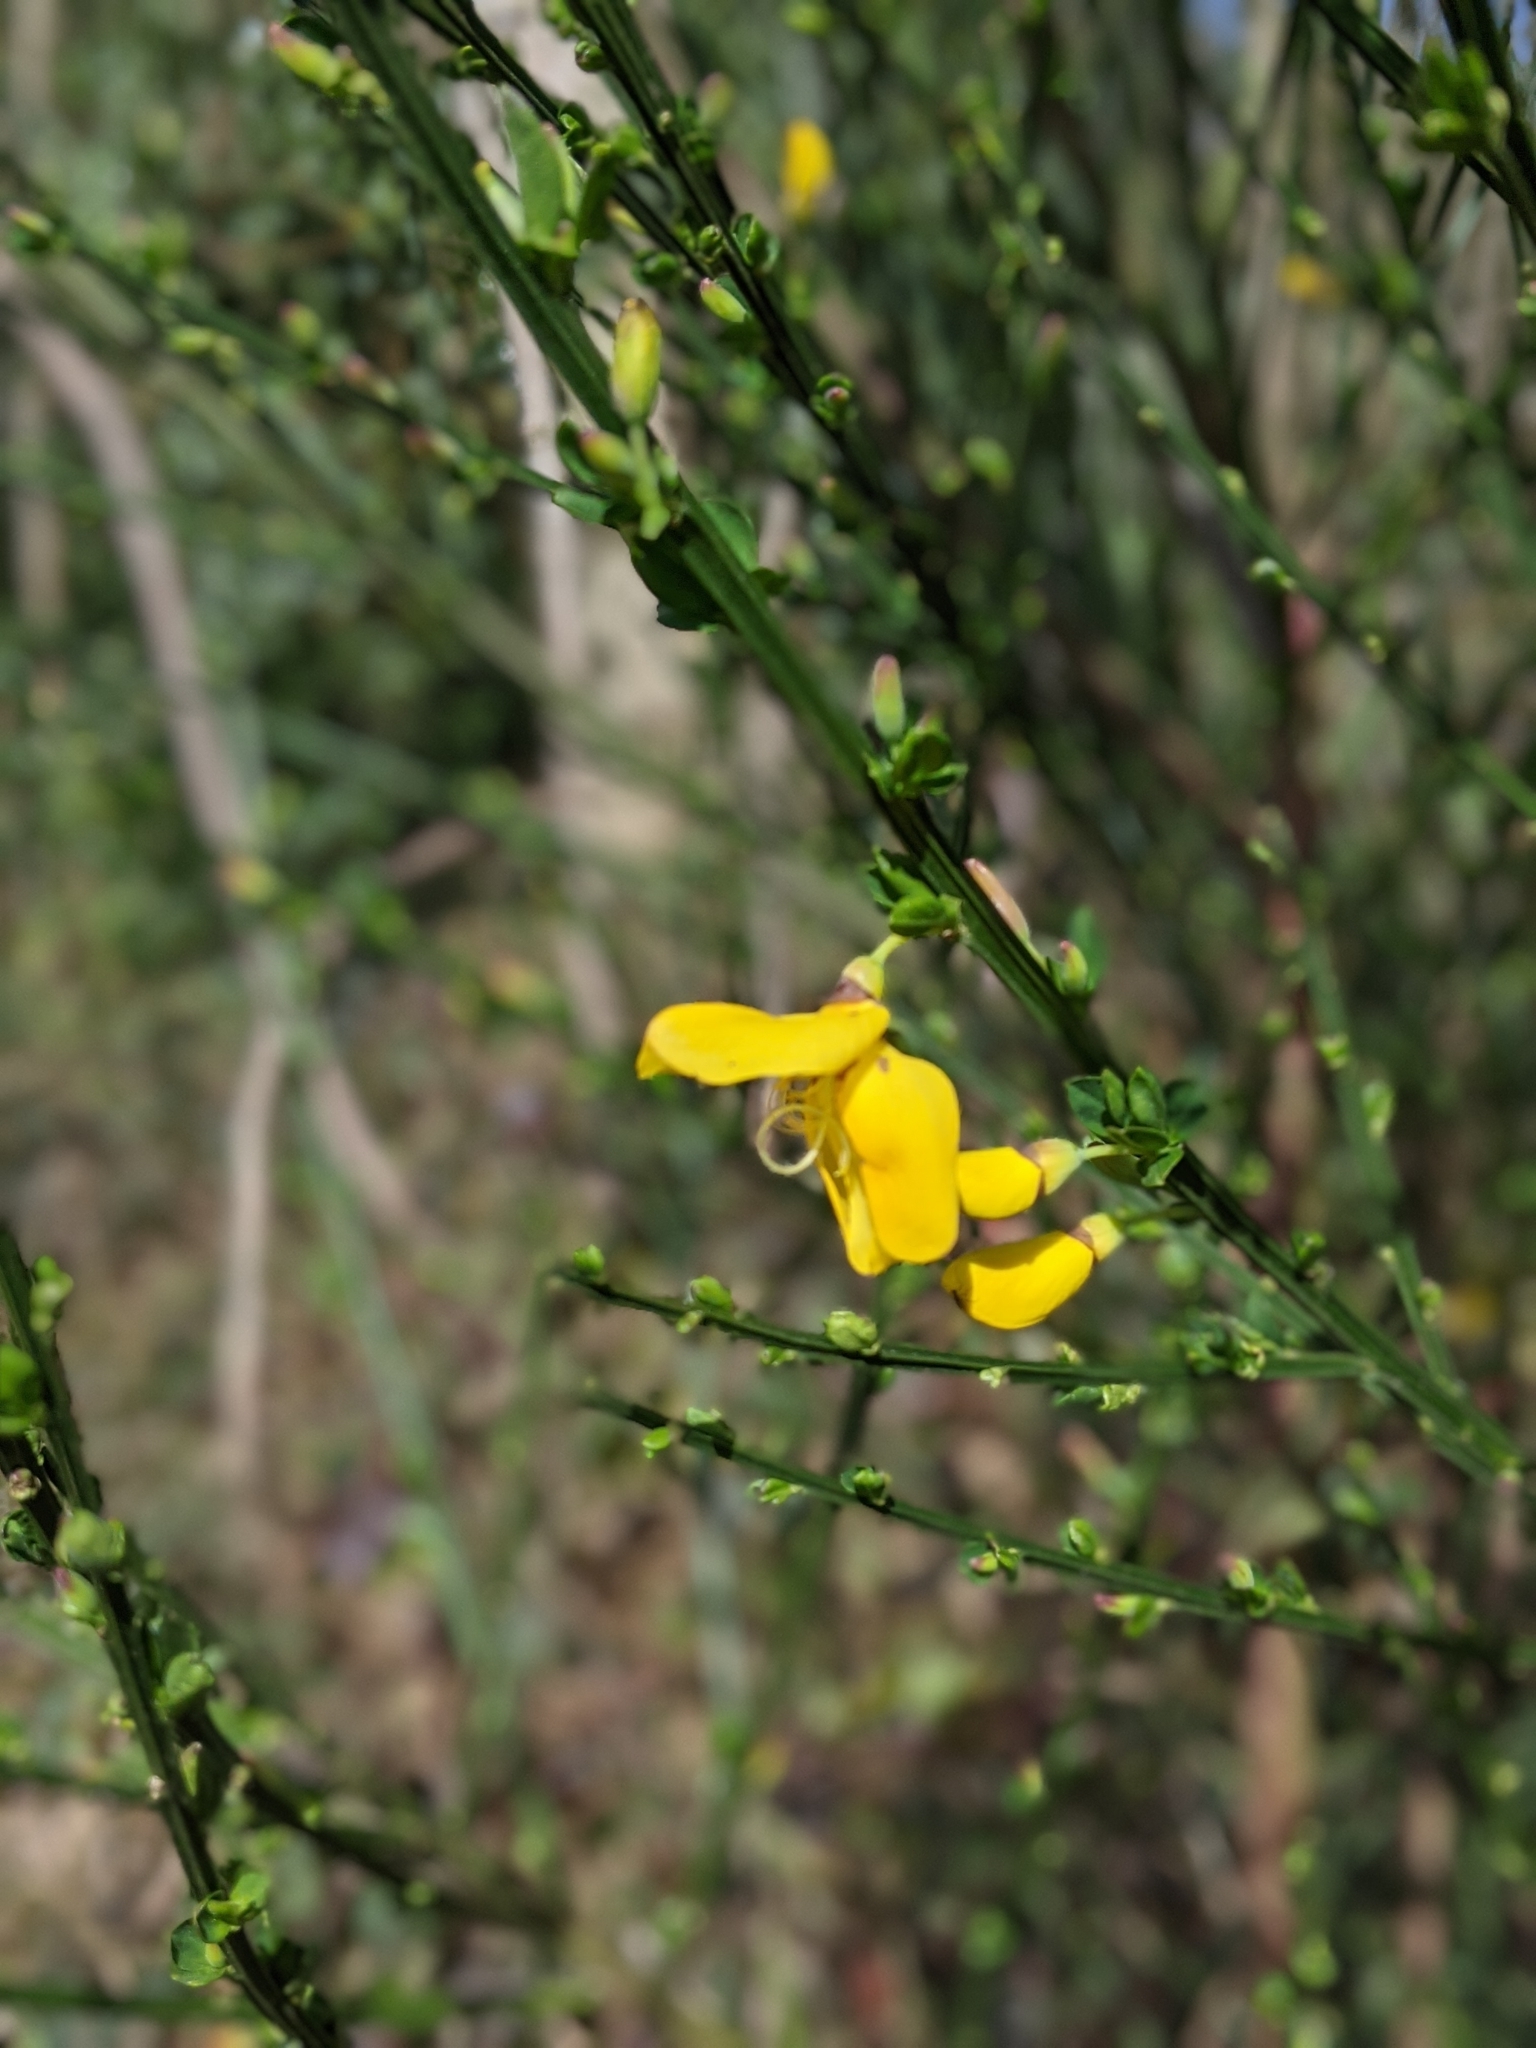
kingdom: Plantae
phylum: Tracheophyta
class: Magnoliopsida
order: Fabales
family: Fabaceae
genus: Cytisus
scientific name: Cytisus scoparius
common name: Scotch broom
